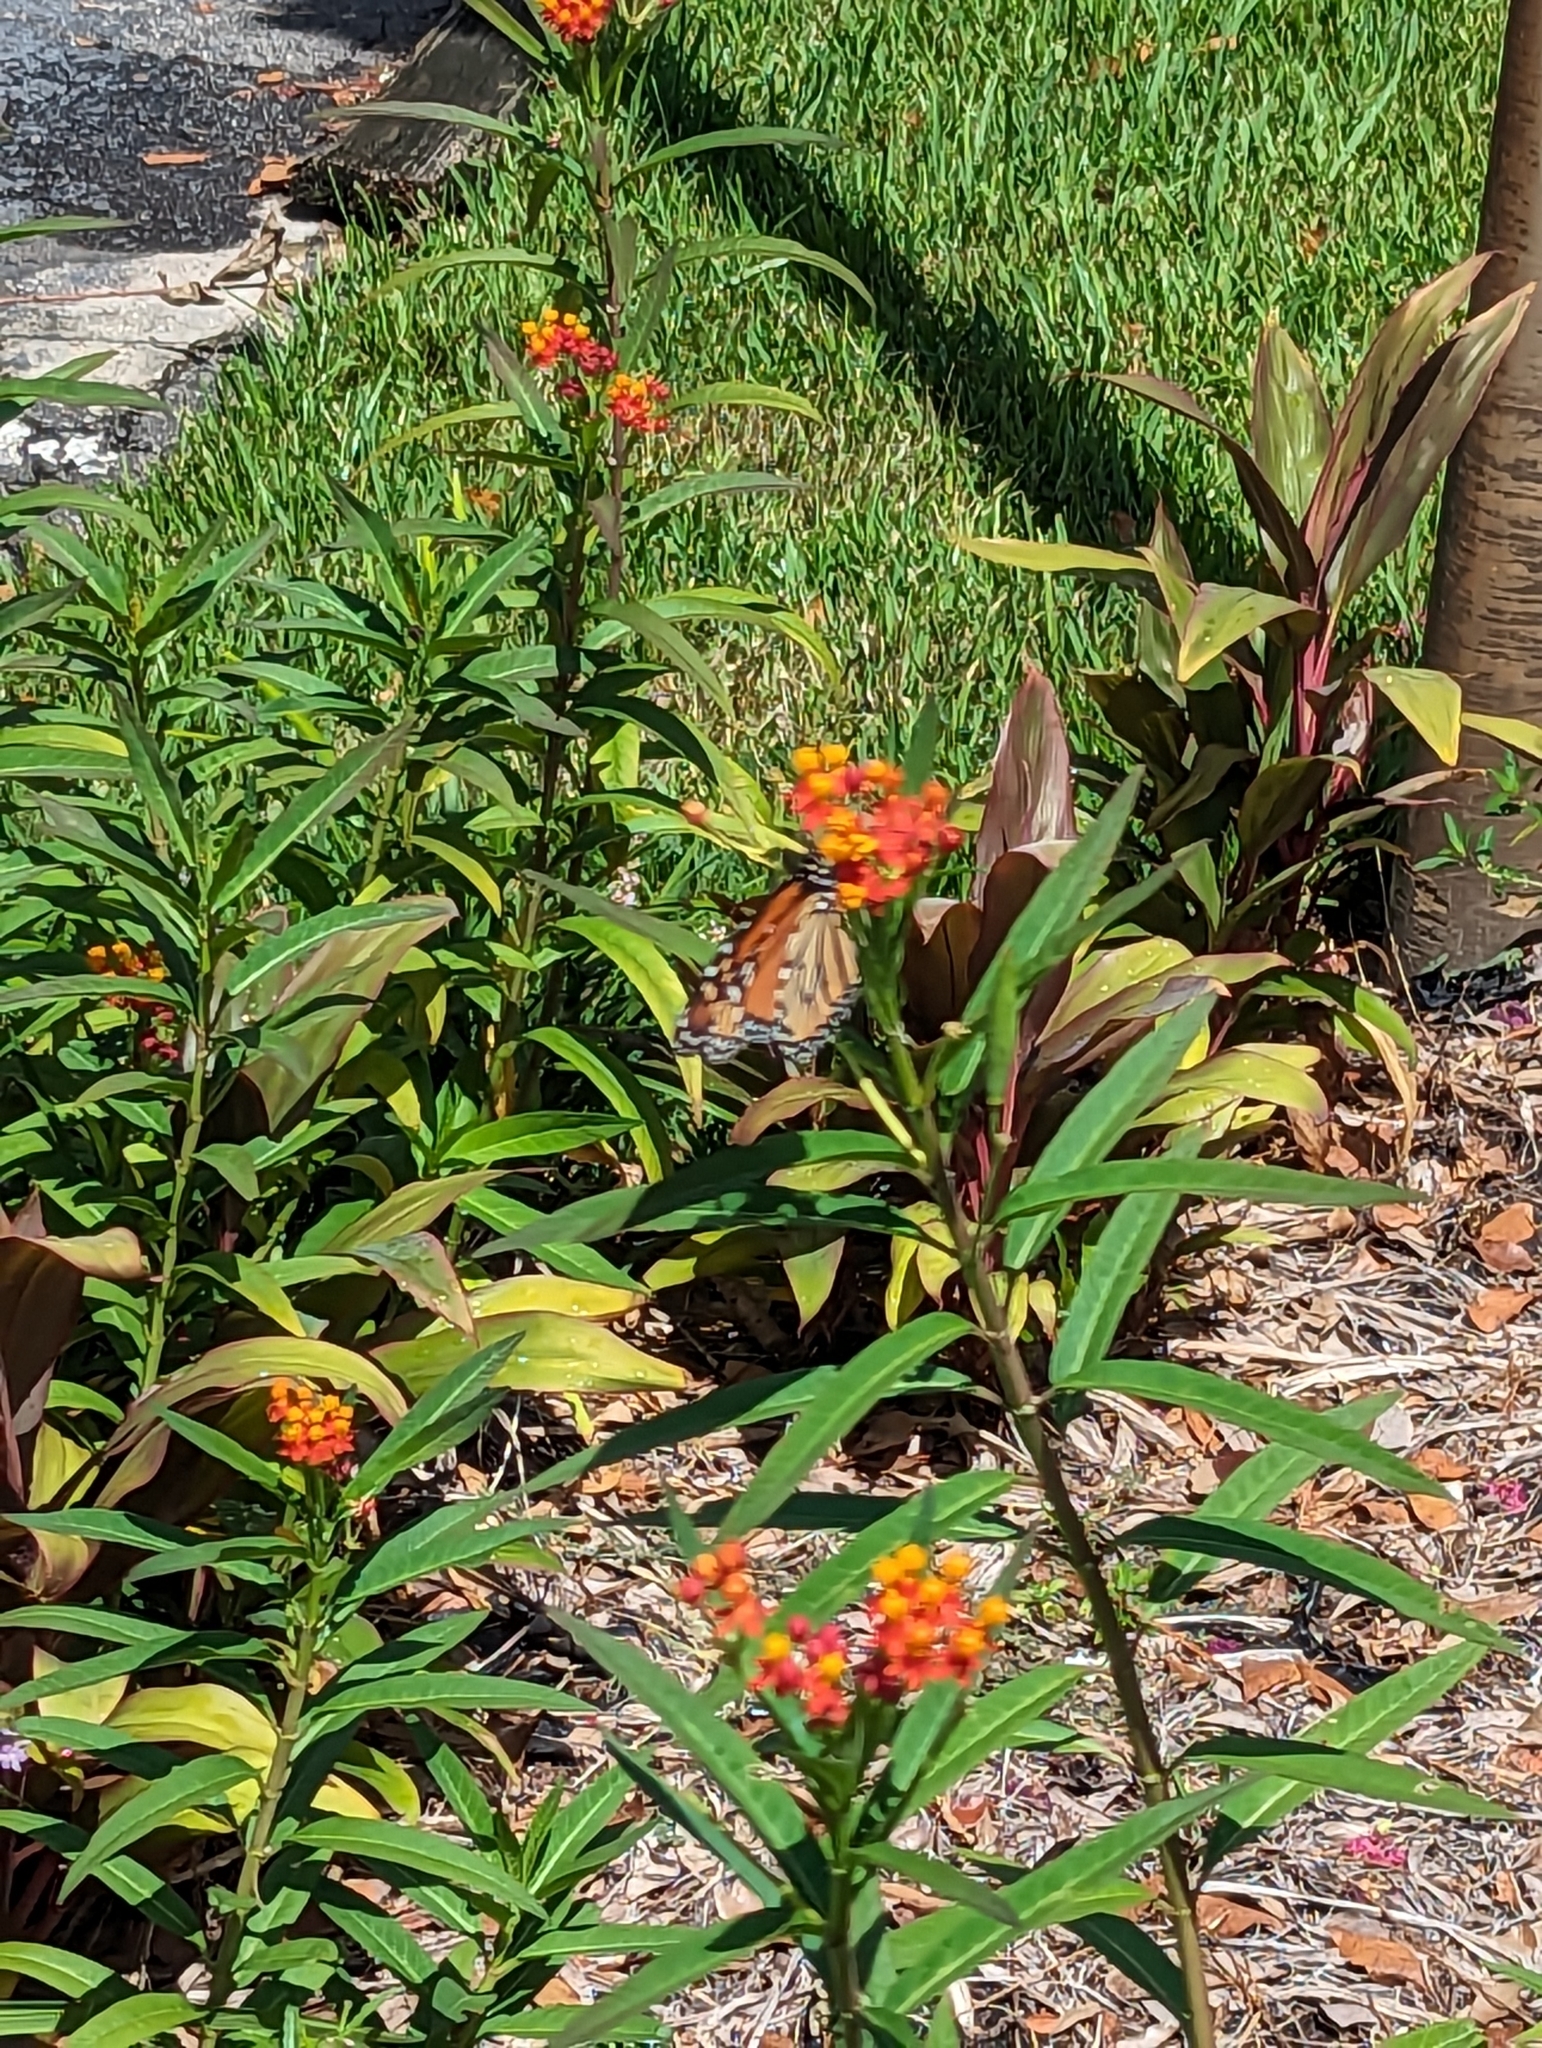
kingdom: Animalia
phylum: Arthropoda
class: Insecta
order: Lepidoptera
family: Nymphalidae
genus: Danaus
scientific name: Danaus plexippus
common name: Monarch
